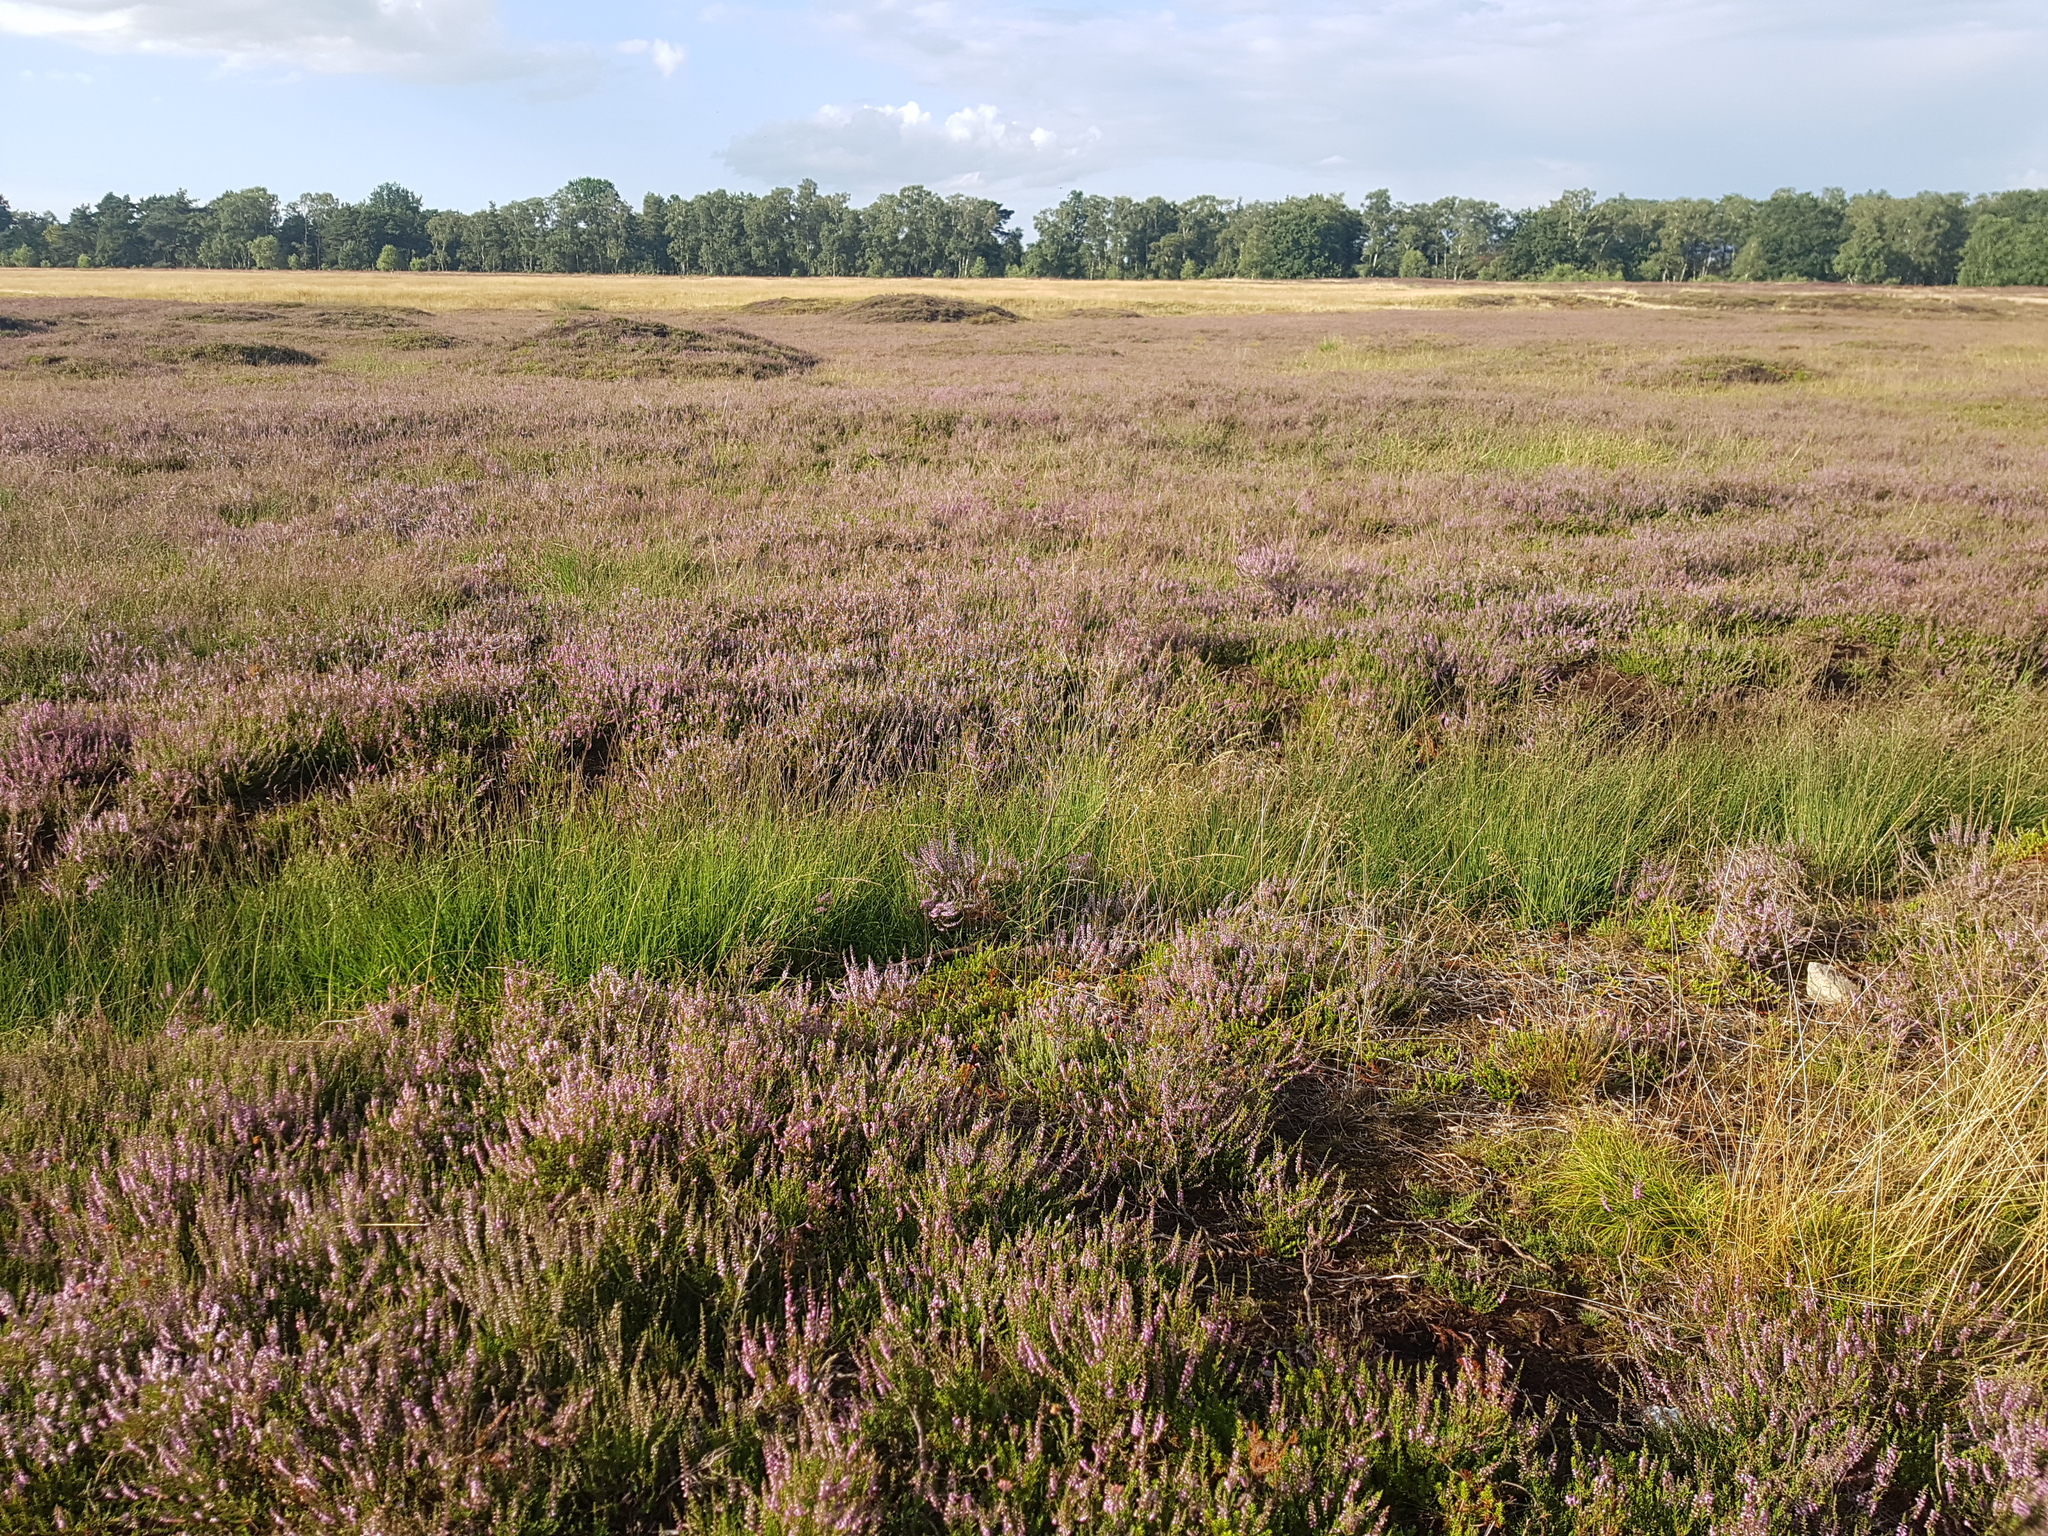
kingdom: Plantae
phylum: Tracheophyta
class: Magnoliopsida
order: Ericales
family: Ericaceae
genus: Calluna
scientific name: Calluna vulgaris
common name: Heather
